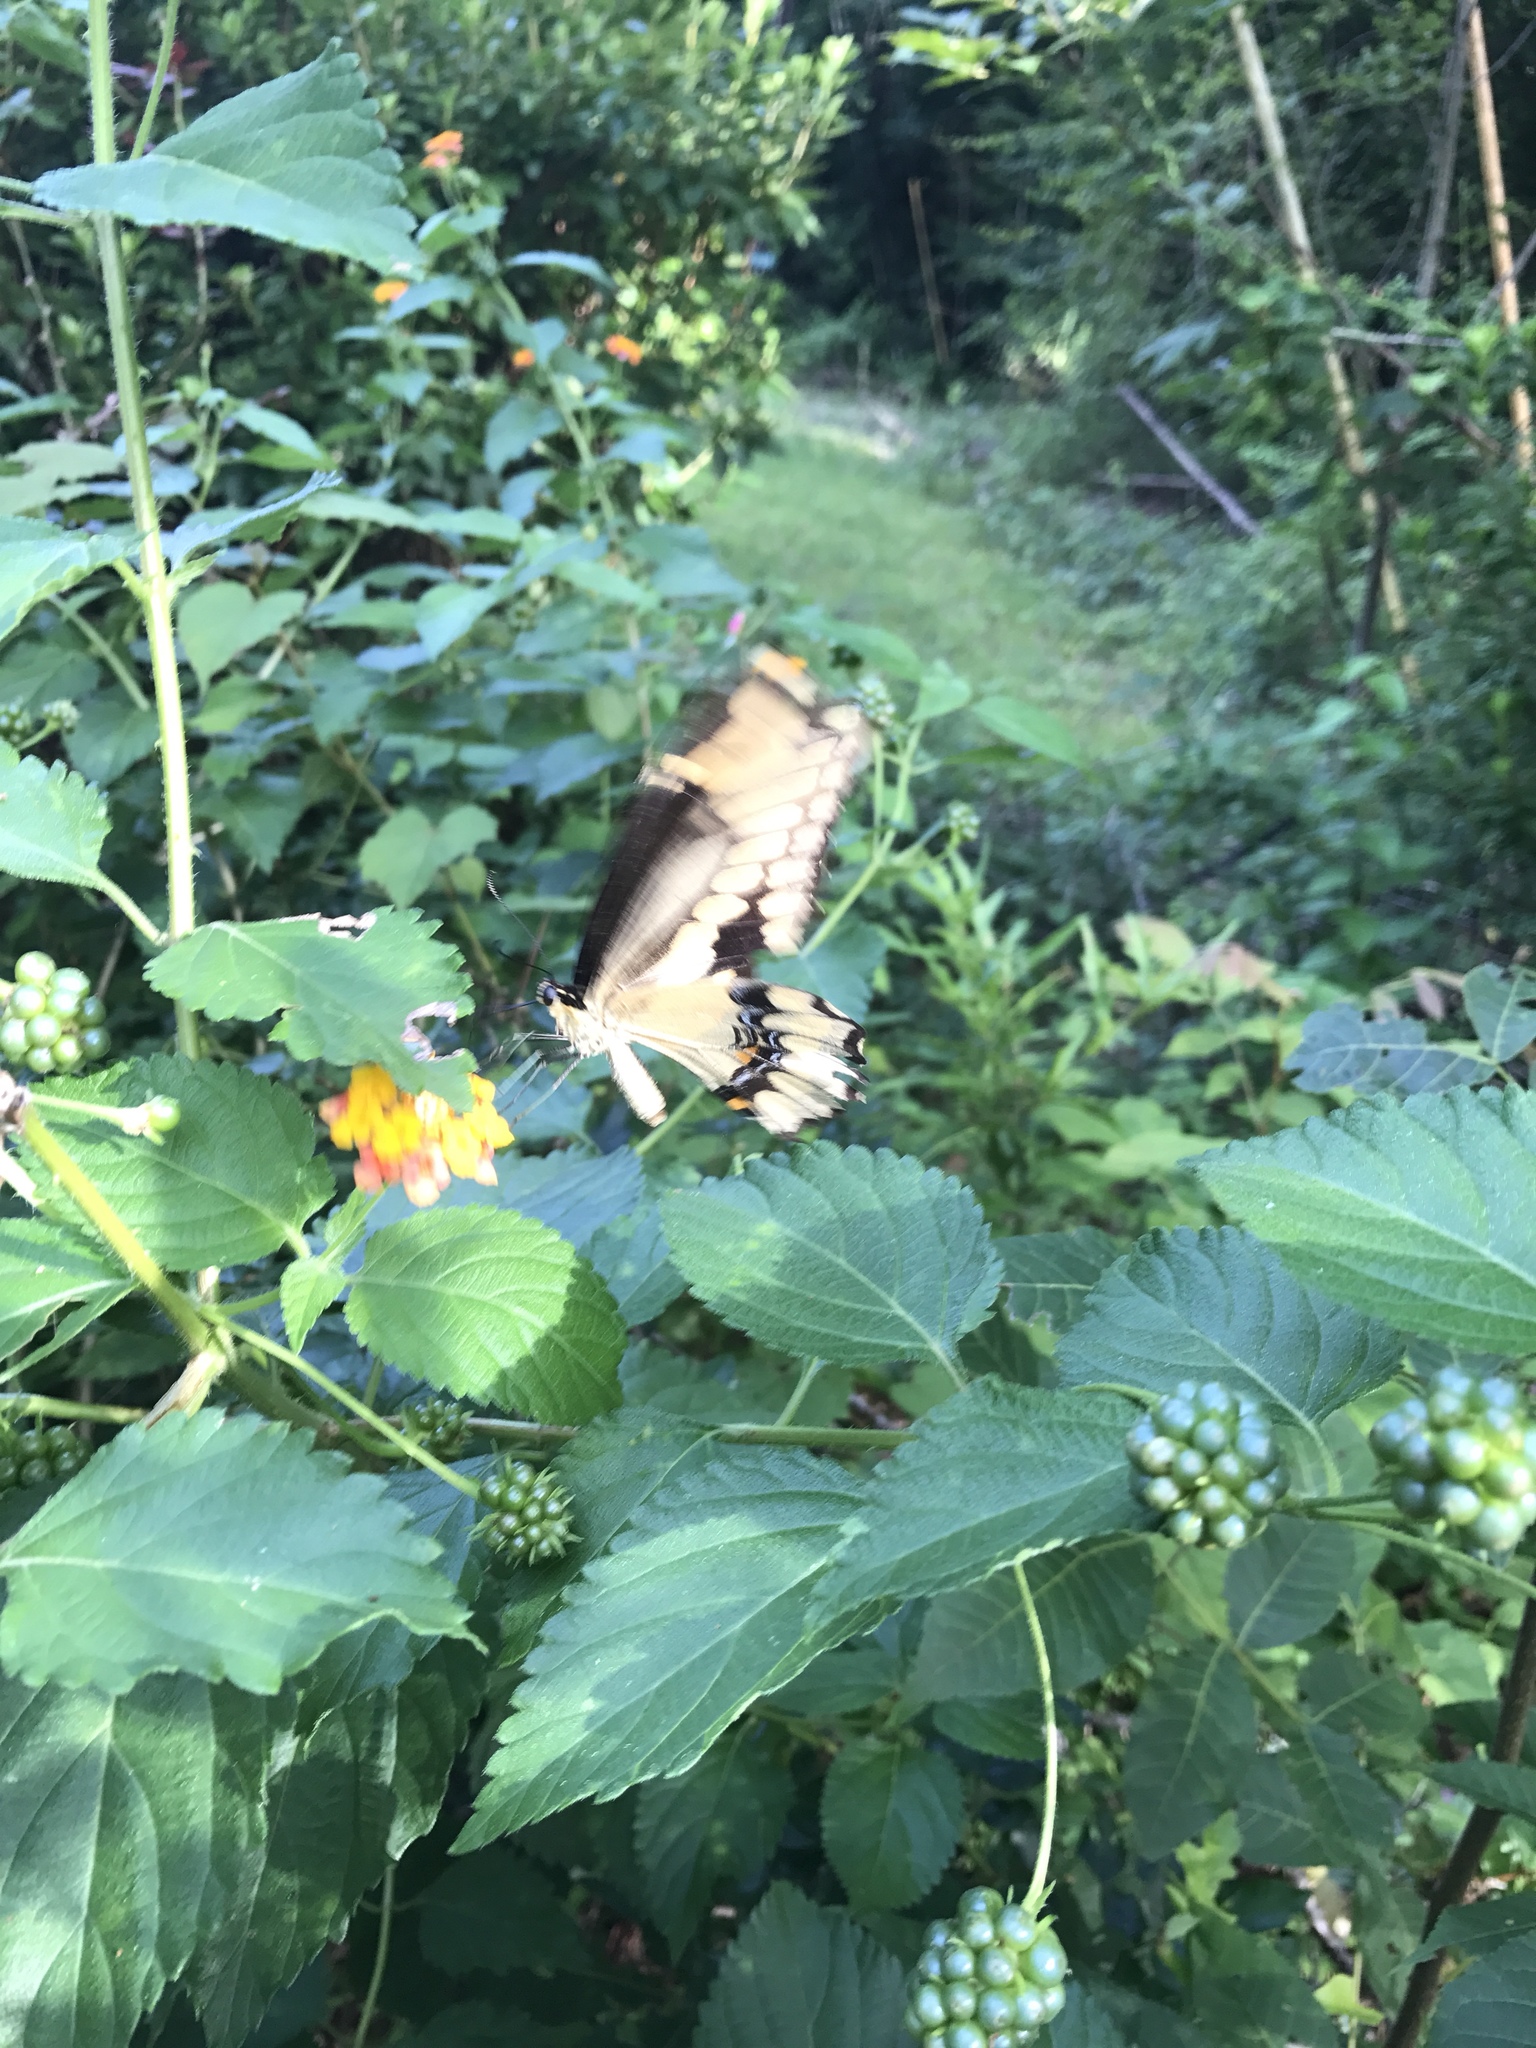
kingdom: Animalia
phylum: Arthropoda
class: Insecta
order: Lepidoptera
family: Papilionidae
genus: Papilio
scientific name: Papilio cresphontes
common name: Giant swallowtail
